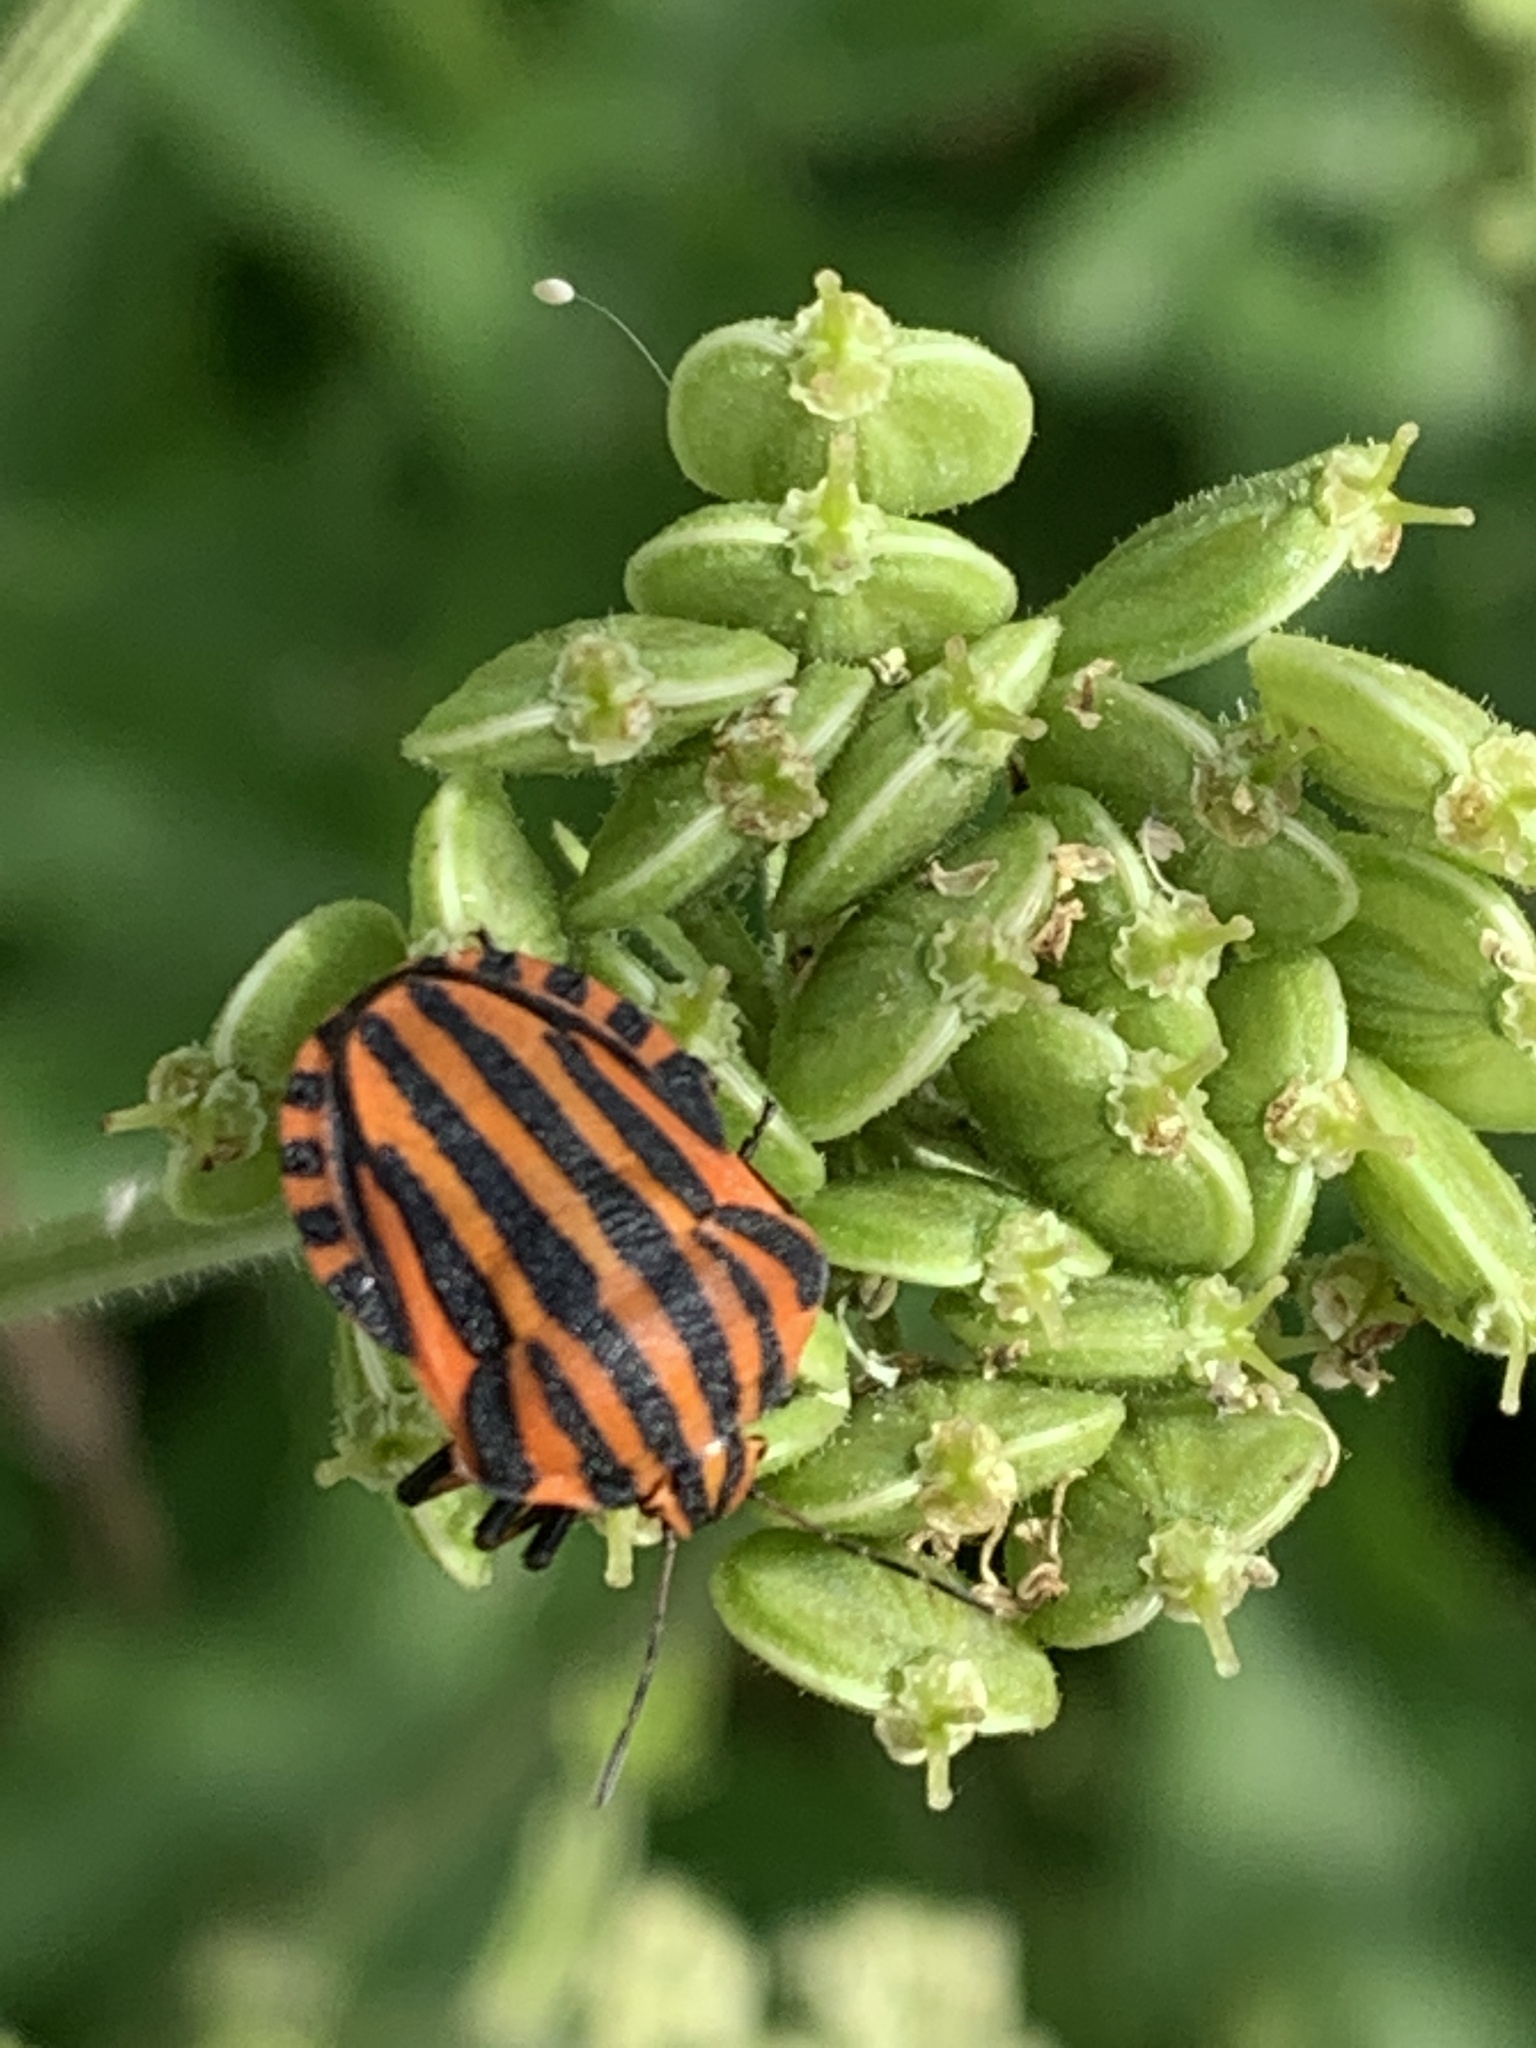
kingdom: Animalia
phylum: Arthropoda
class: Insecta
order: Hemiptera
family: Pentatomidae
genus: Graphosoma
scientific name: Graphosoma italicum
